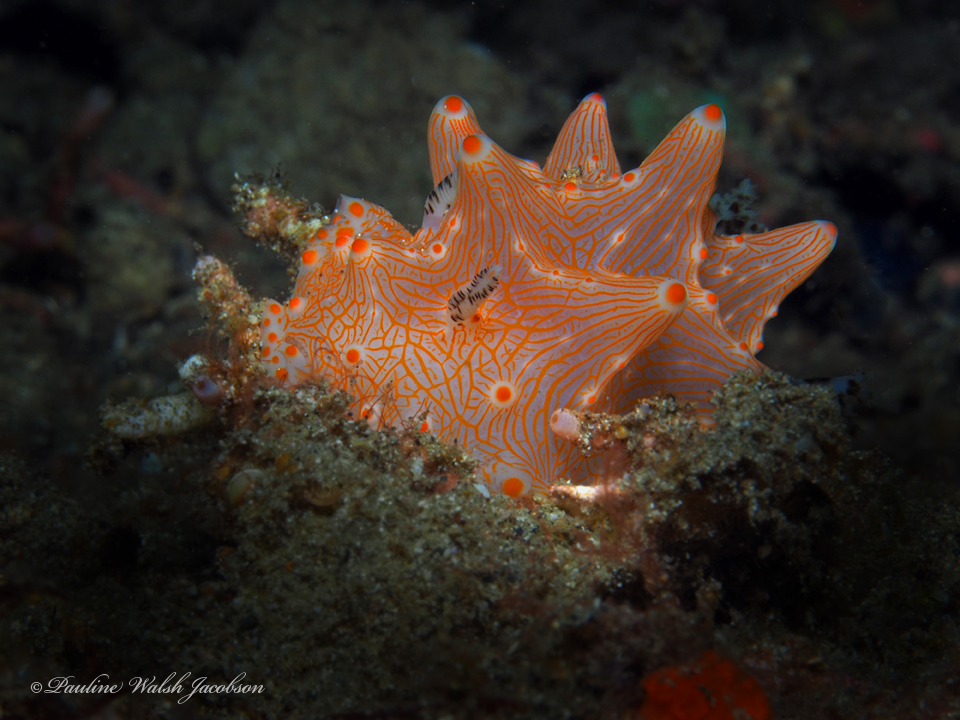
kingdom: Animalia
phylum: Mollusca
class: Gastropoda
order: Nudibranchia
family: Discodorididae
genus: Halgerda
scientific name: Halgerda batangas
